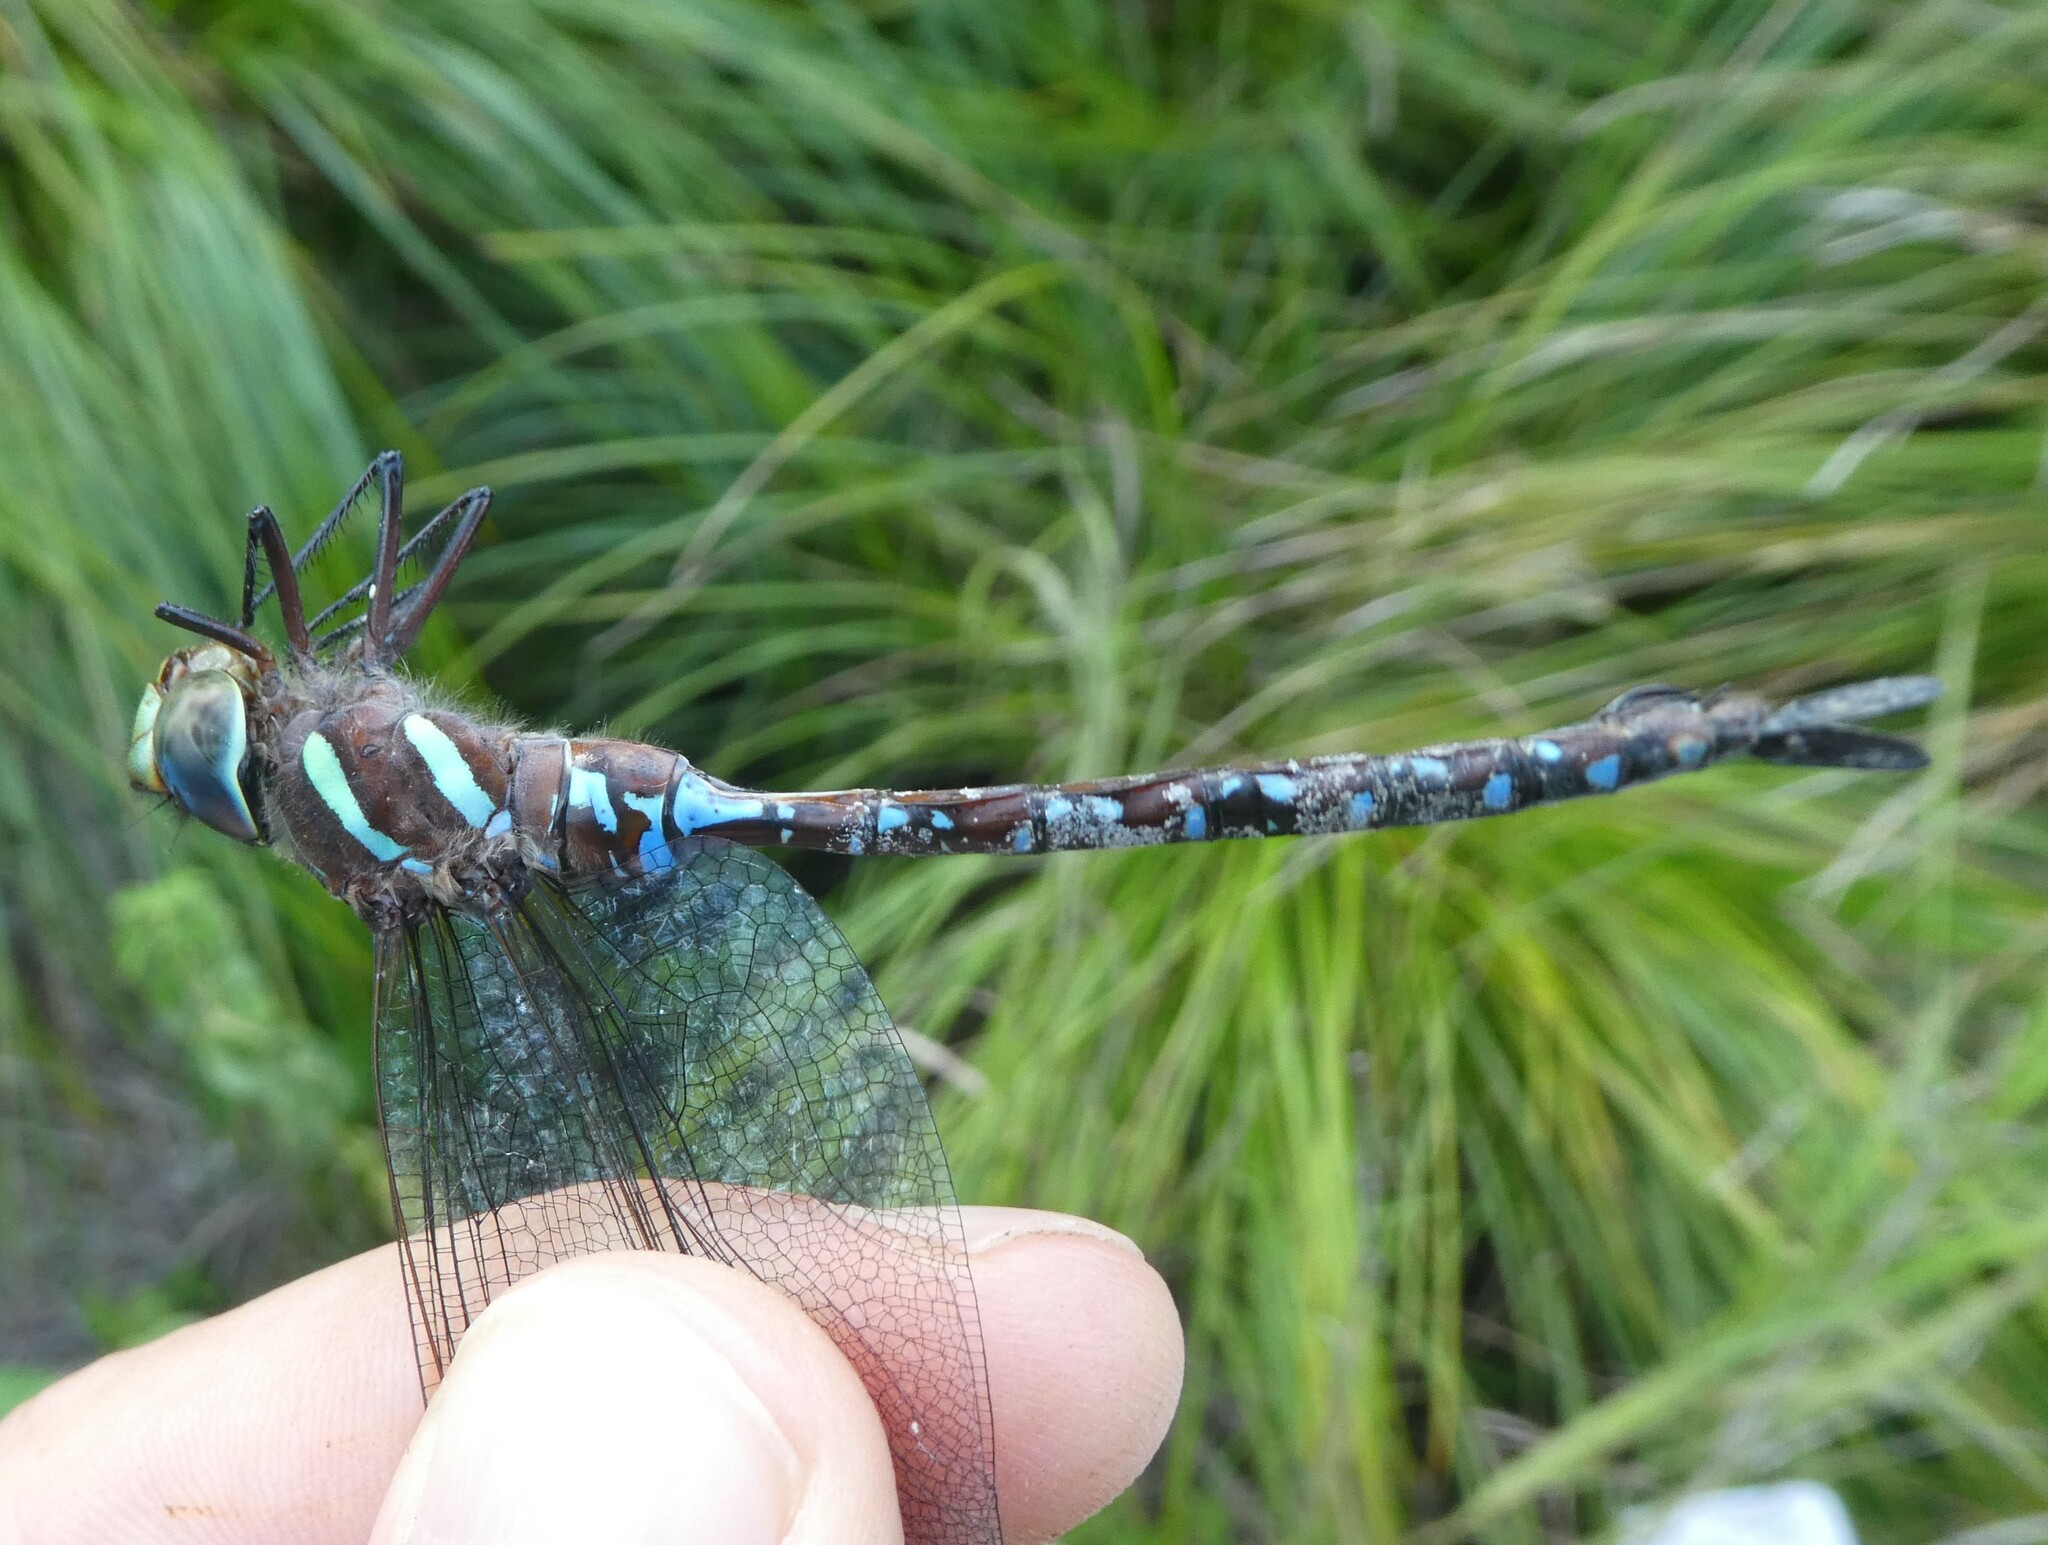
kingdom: Animalia
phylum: Arthropoda
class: Insecta
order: Odonata
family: Aeshnidae
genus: Aeshna
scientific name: Aeshna tuberculifera
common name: Aeschne à tubercules
